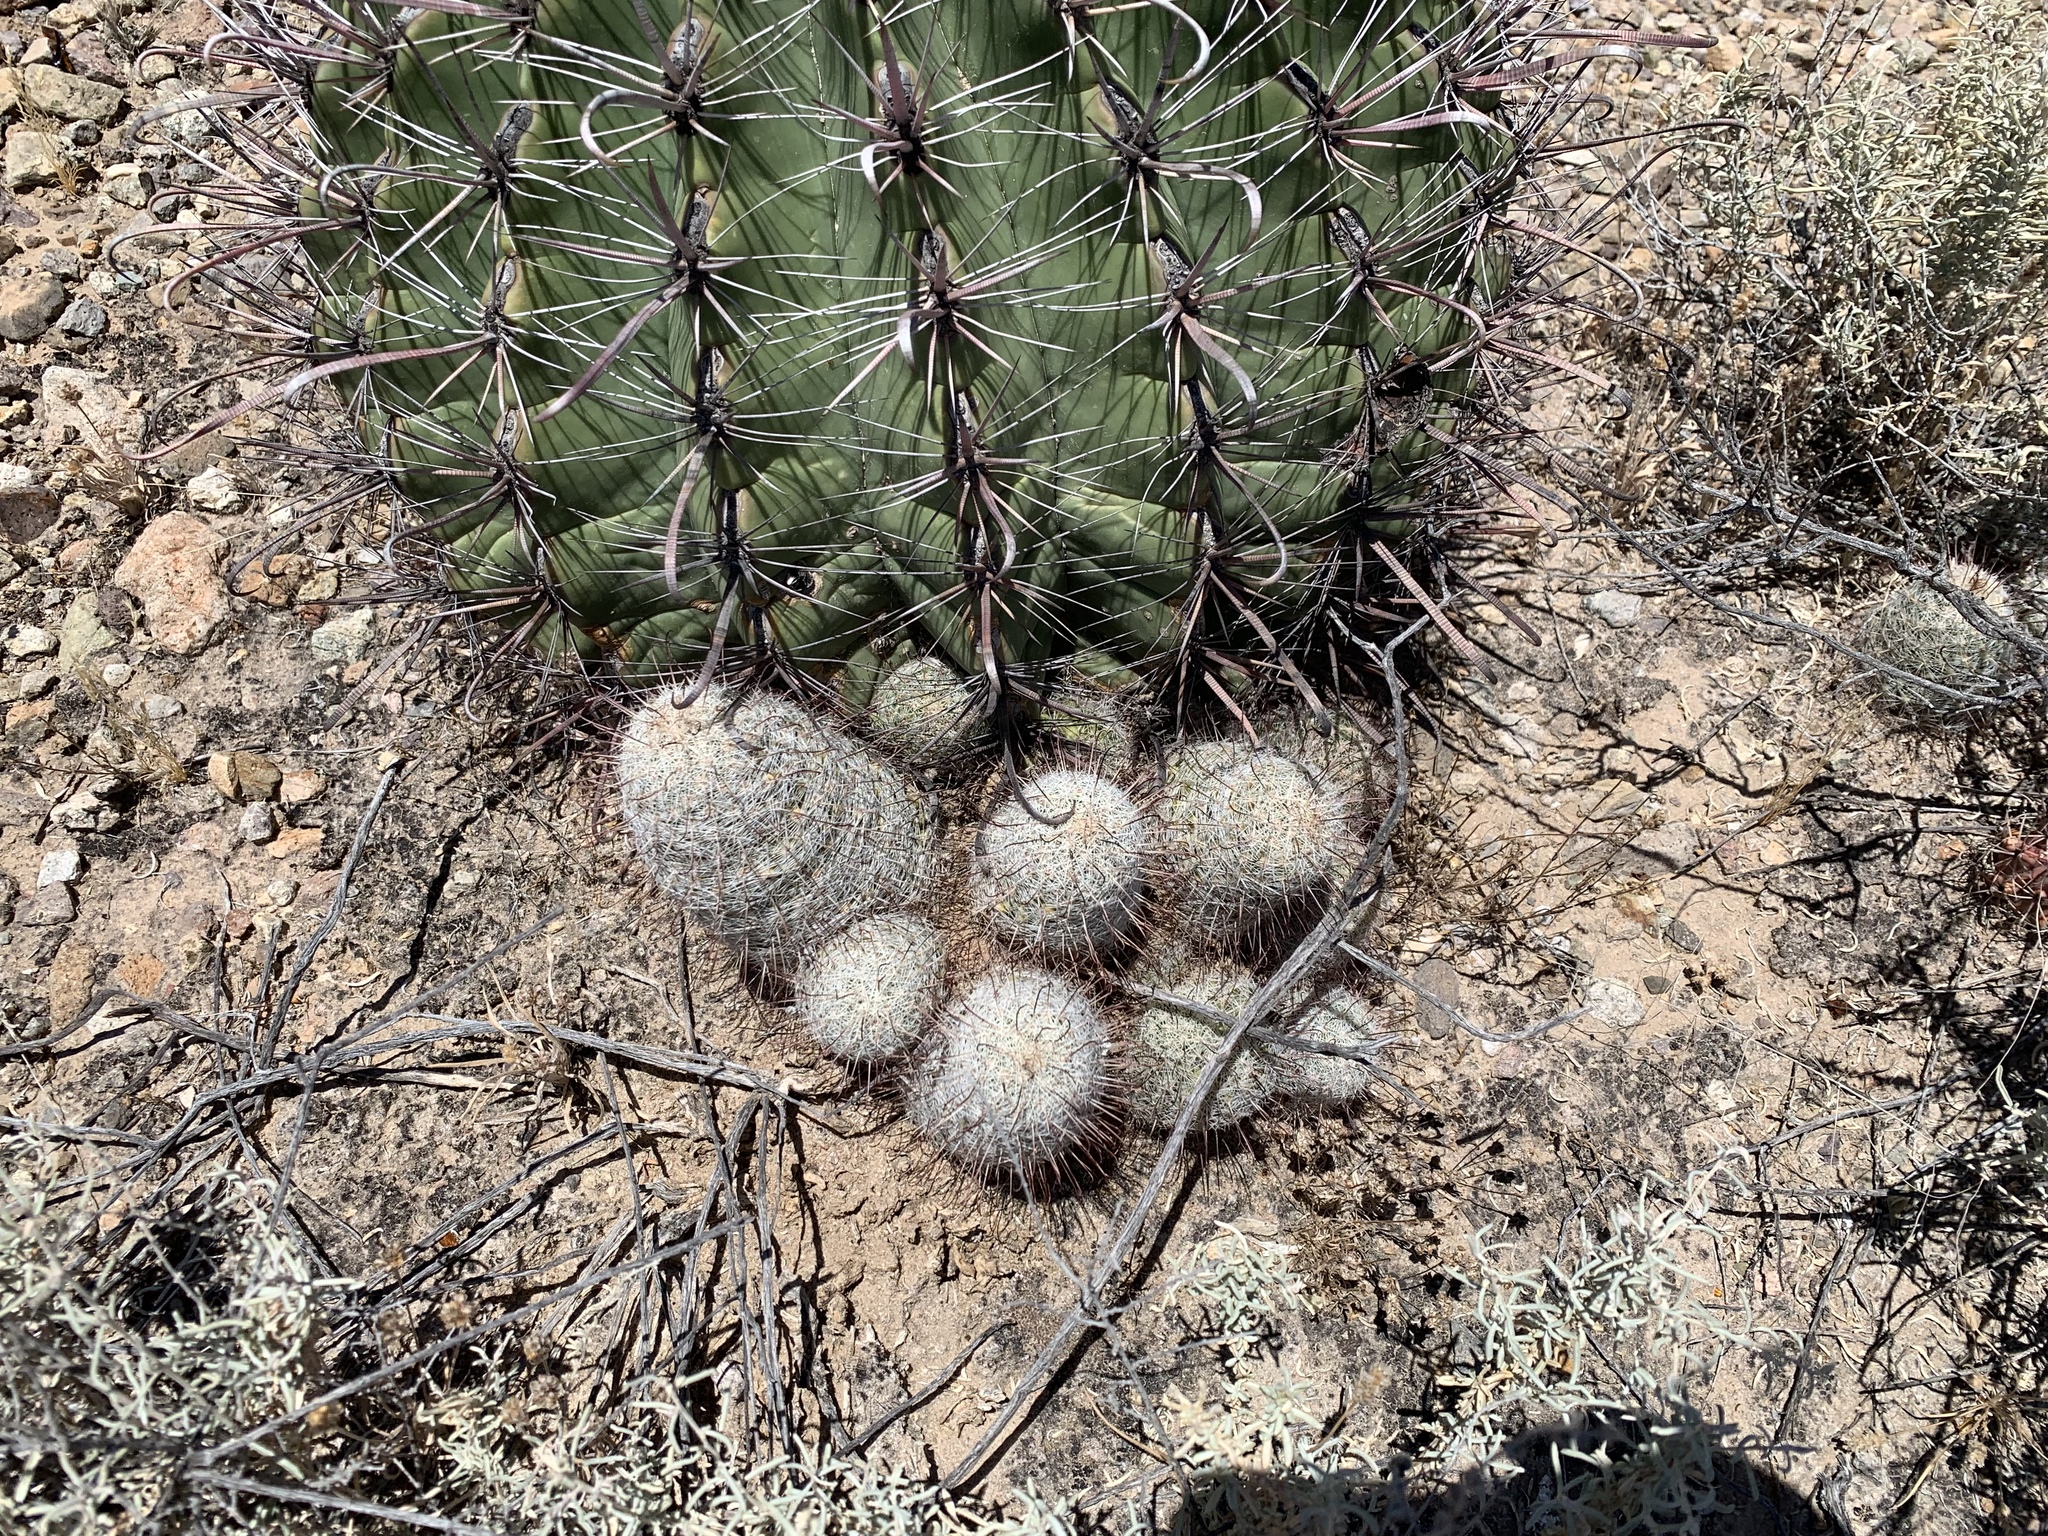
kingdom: Plantae
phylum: Tracheophyta
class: Magnoliopsida
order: Caryophyllales
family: Cactaceae
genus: Cochemiea
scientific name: Cochemiea grahamii
